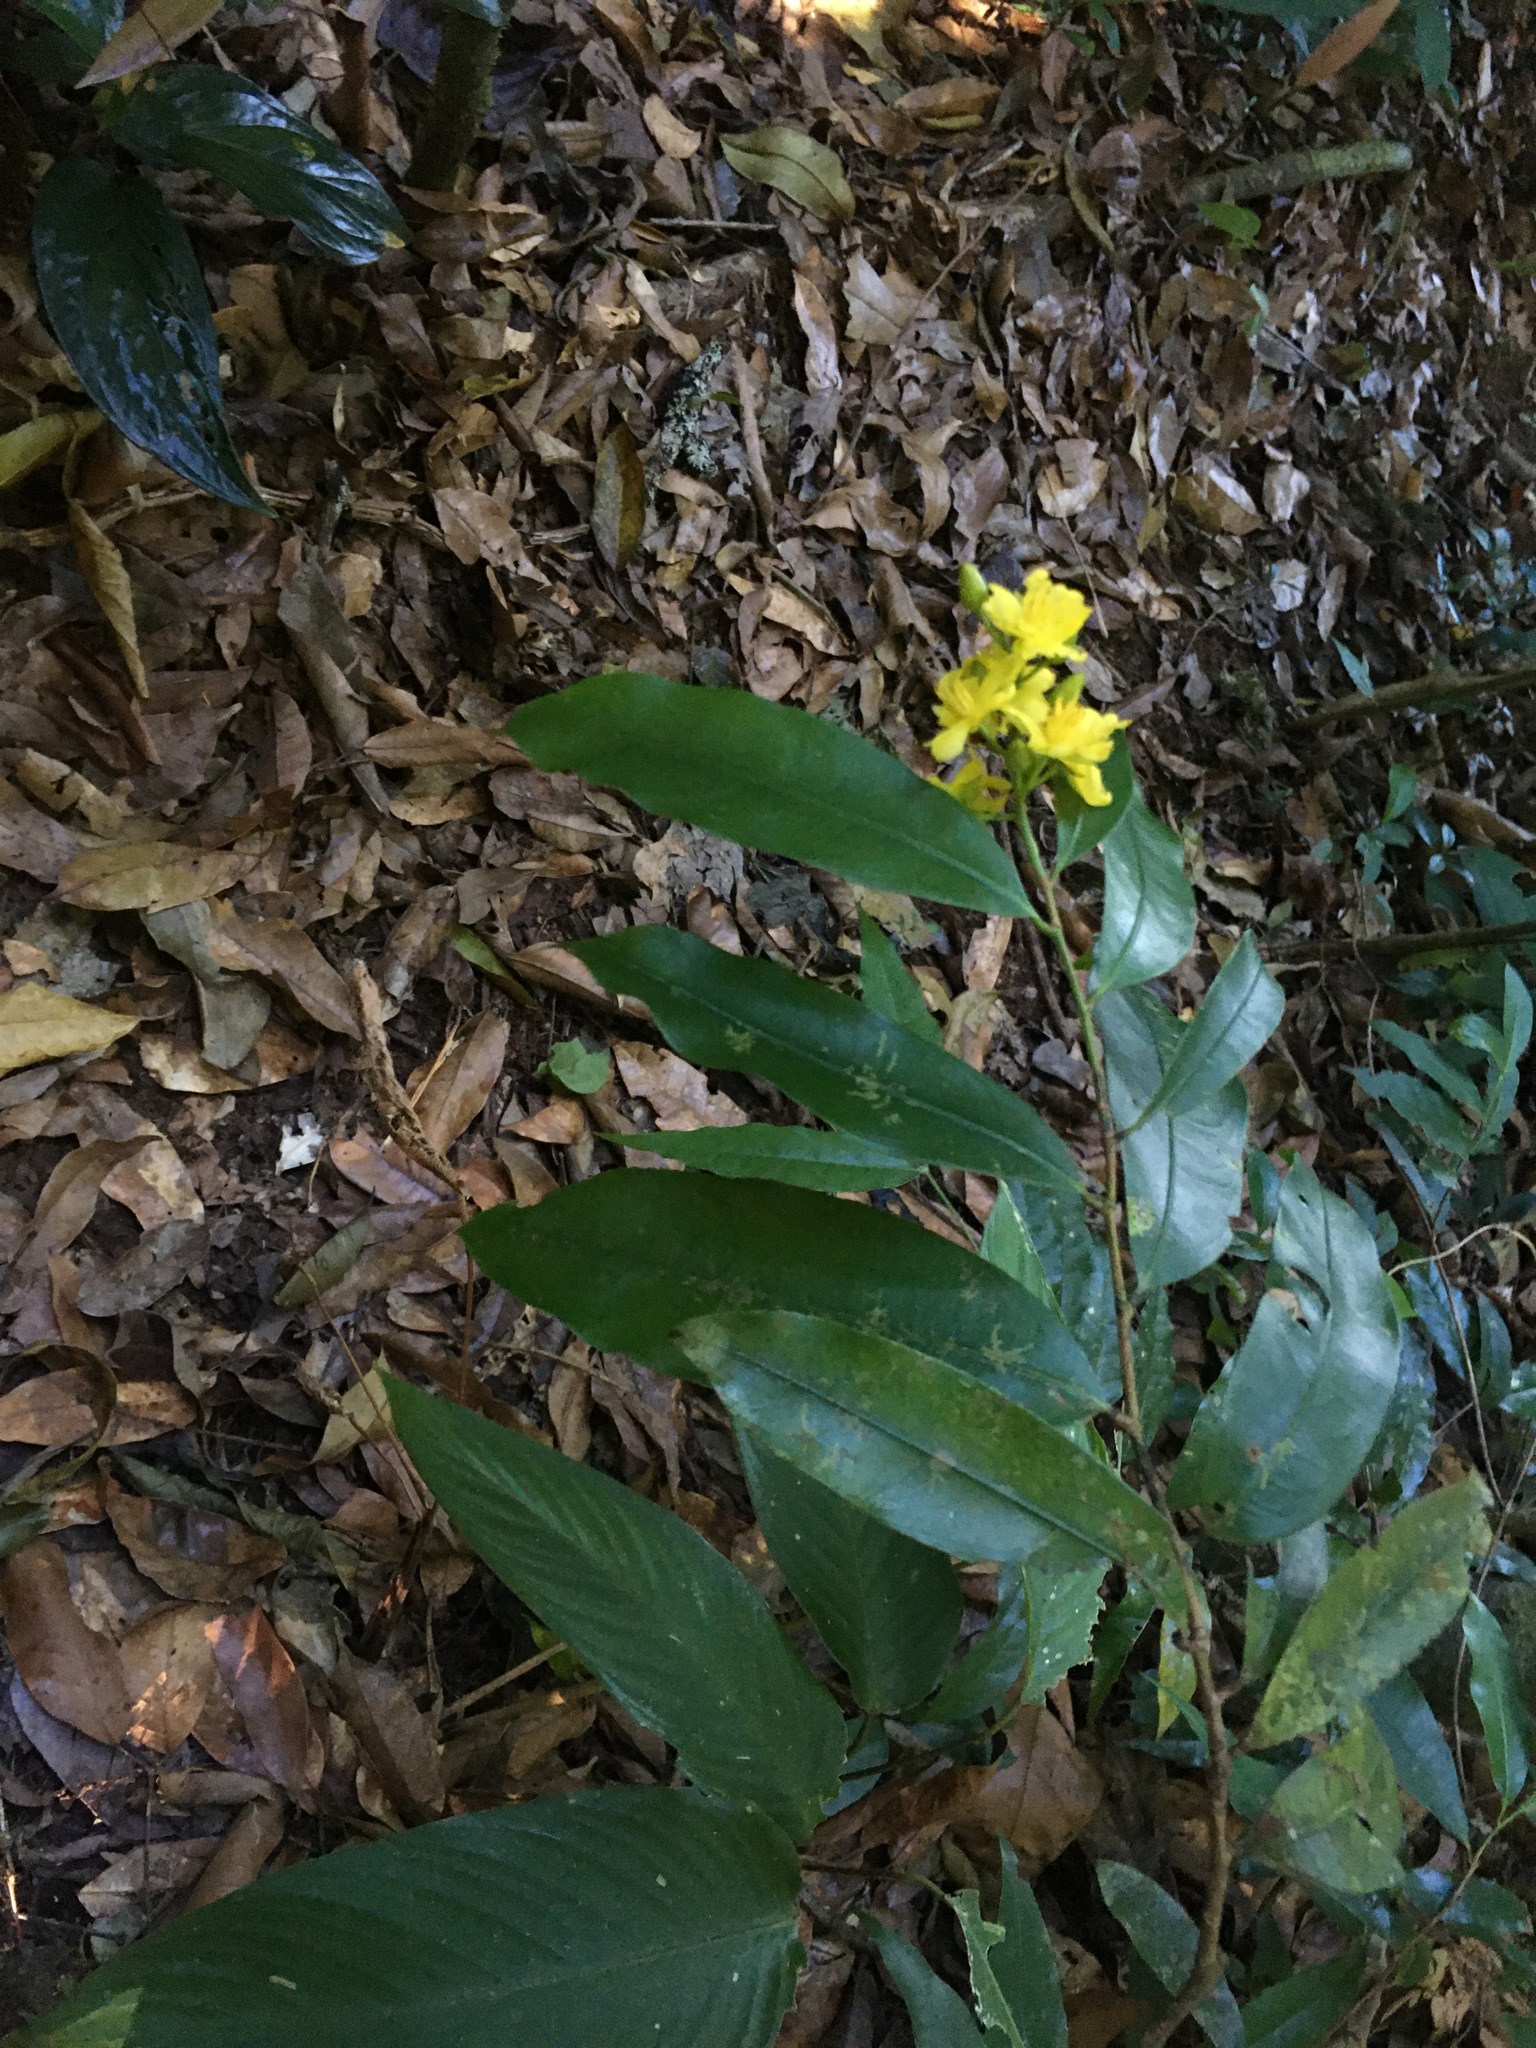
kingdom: Plantae
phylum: Tracheophyta
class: Magnoliopsida
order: Malpighiales
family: Ochnaceae
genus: Ouratea
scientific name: Ouratea lucens
